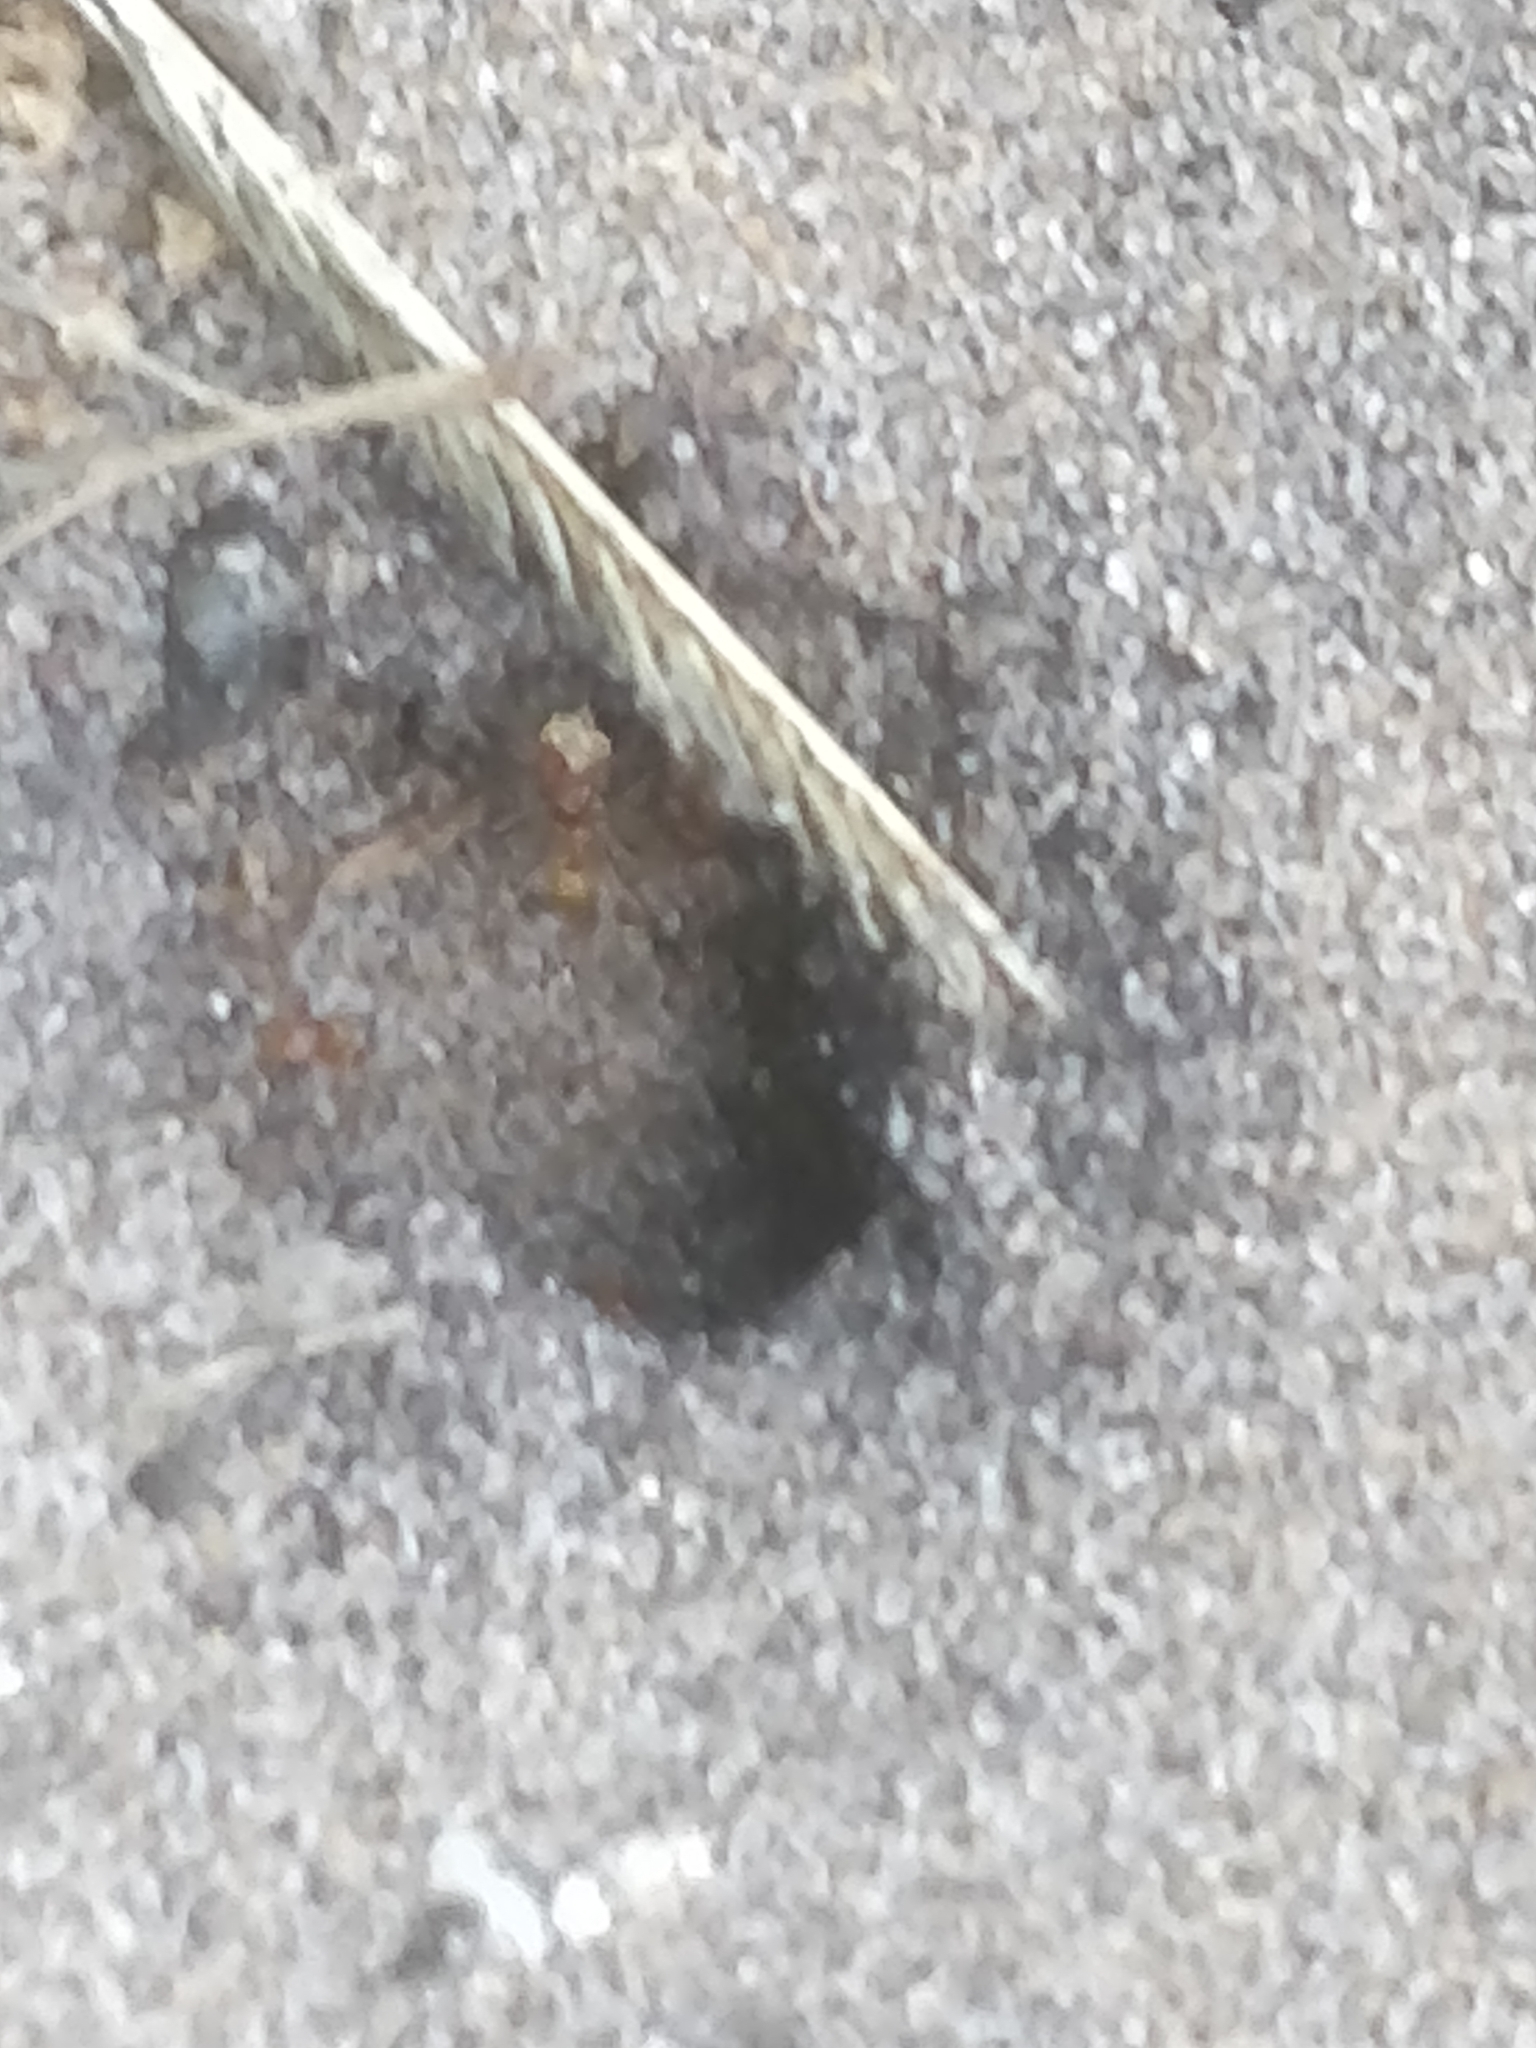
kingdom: Animalia
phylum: Arthropoda
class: Insecta
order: Hymenoptera
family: Formicidae
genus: Dorymyrmex
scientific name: Dorymyrmex bureni
